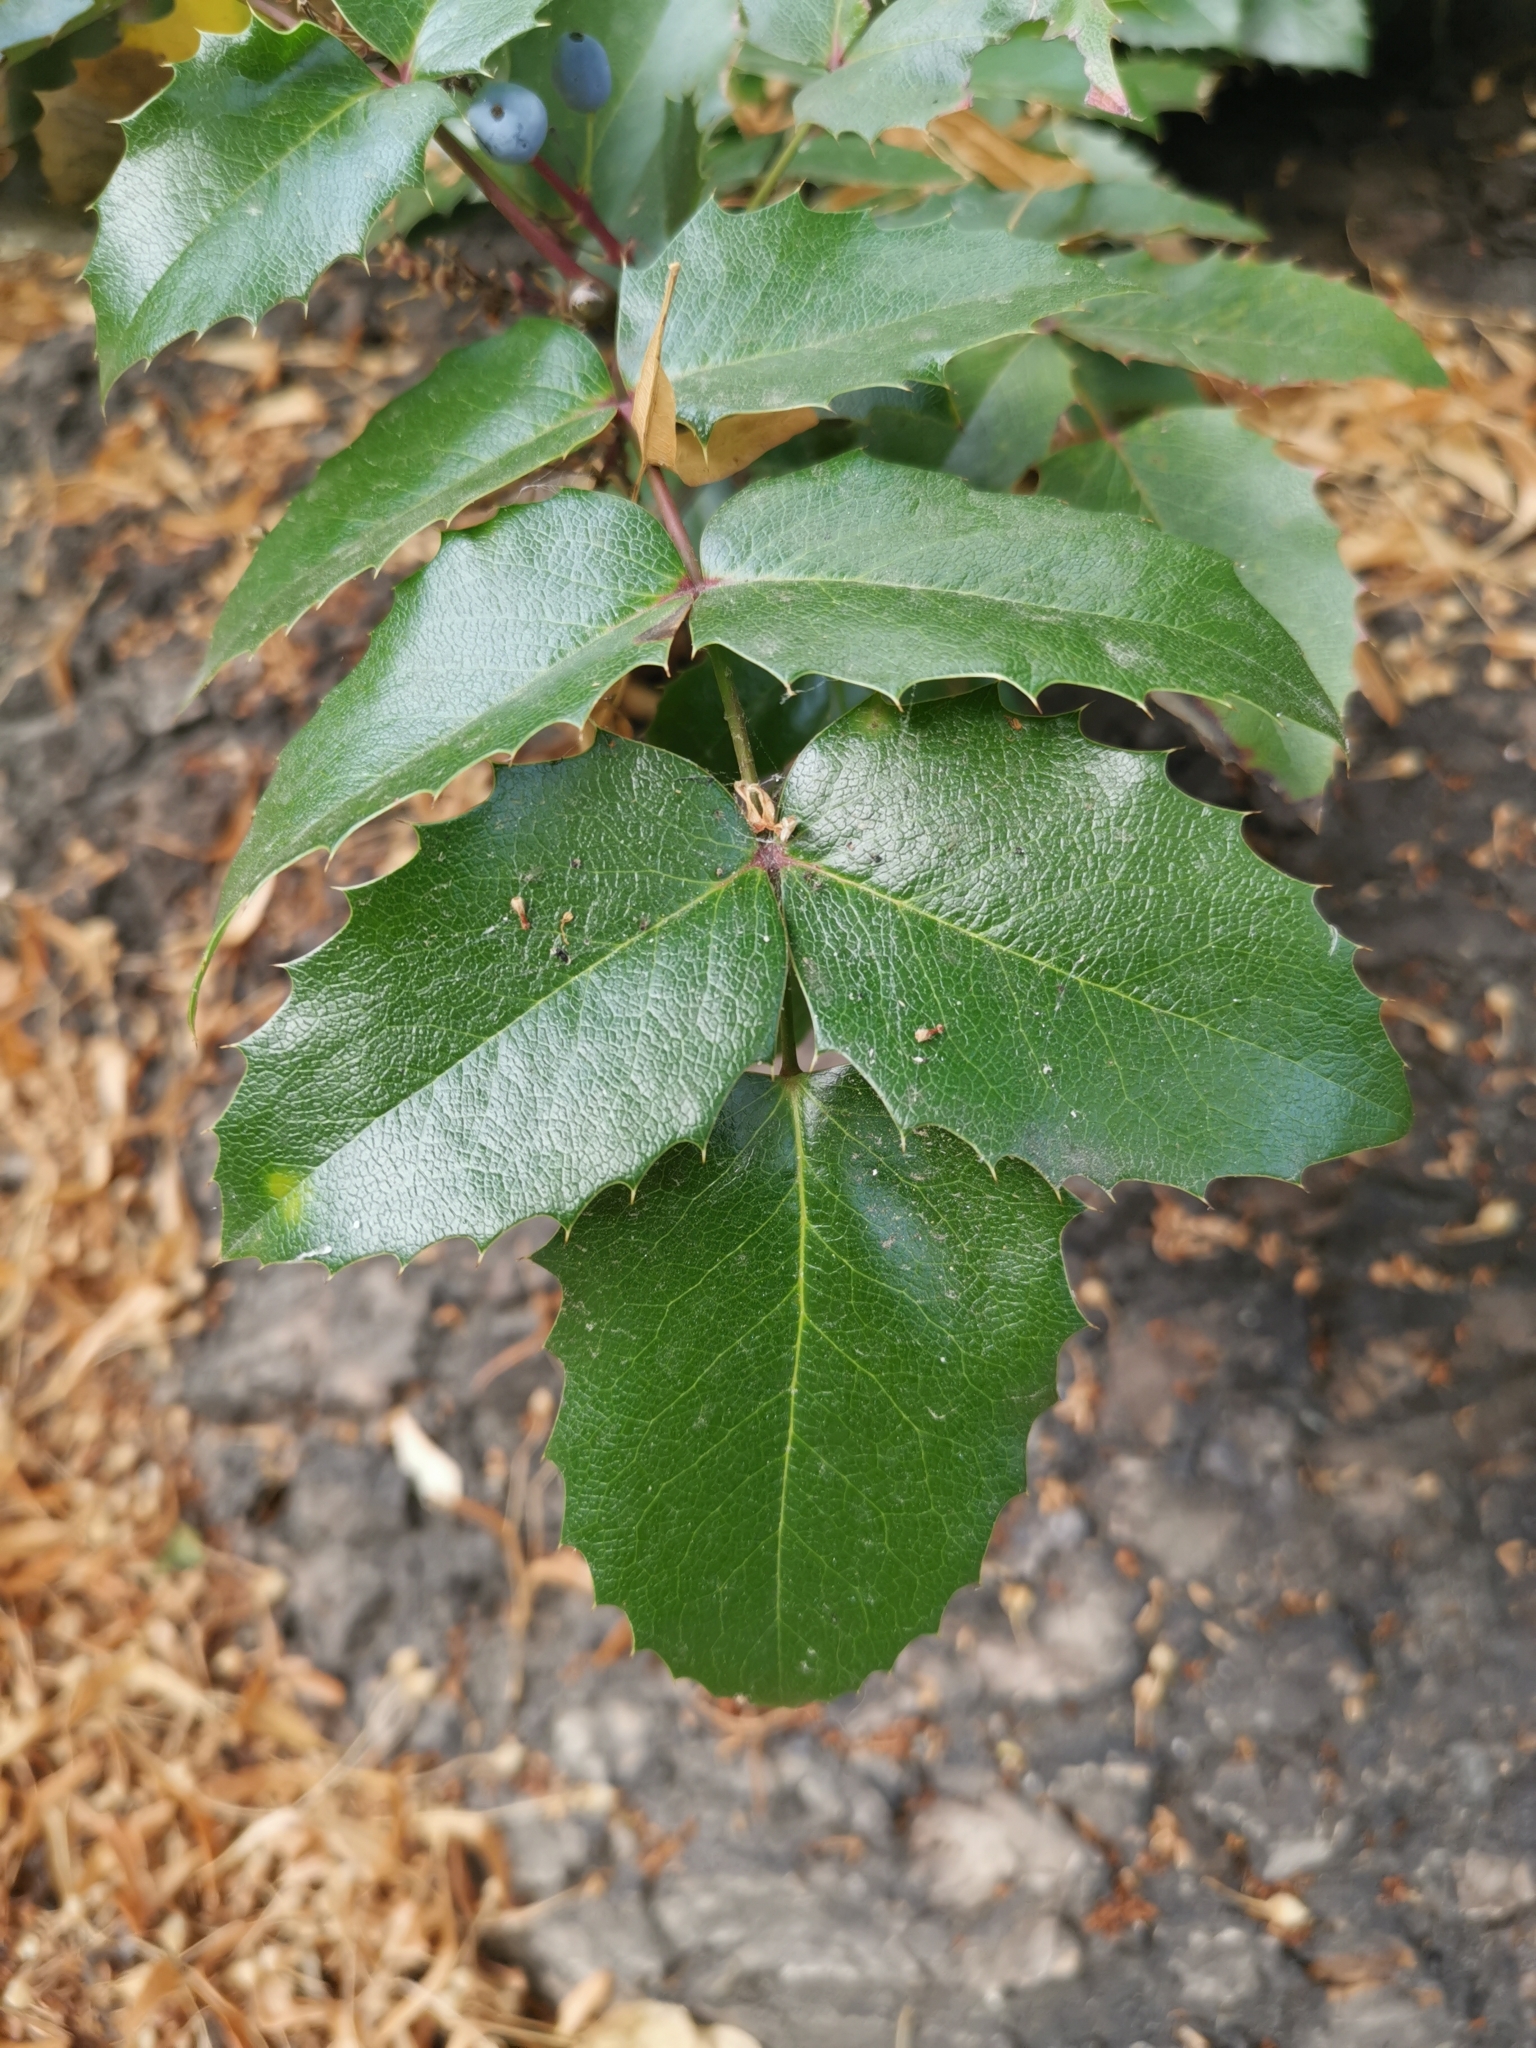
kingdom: Plantae
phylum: Tracheophyta
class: Magnoliopsida
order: Ranunculales
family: Berberidaceae
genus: Mahonia
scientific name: Mahonia aquifolium
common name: Oregon-grape
